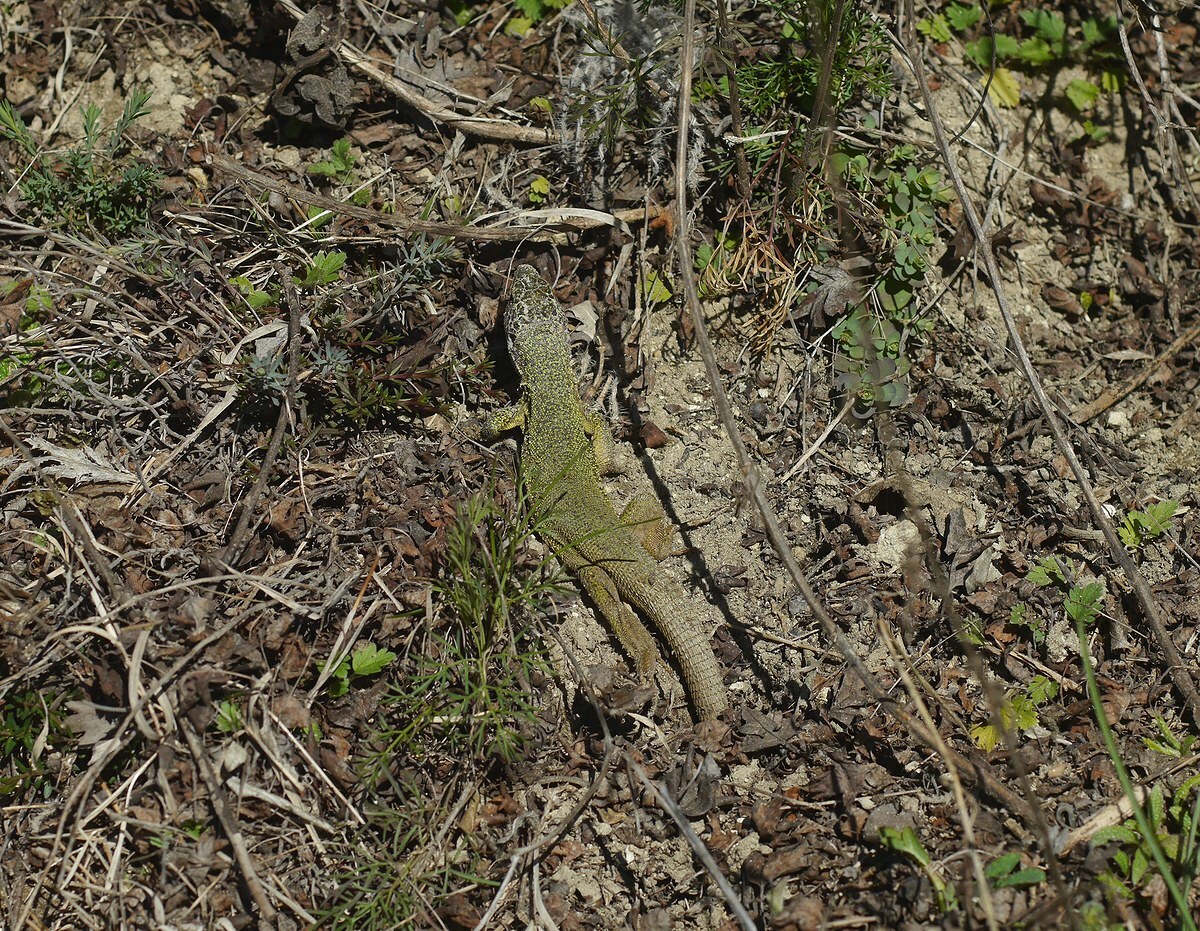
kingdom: Animalia
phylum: Chordata
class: Squamata
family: Lacertidae
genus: Lacerta
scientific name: Lacerta viridis
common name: European green lizard
